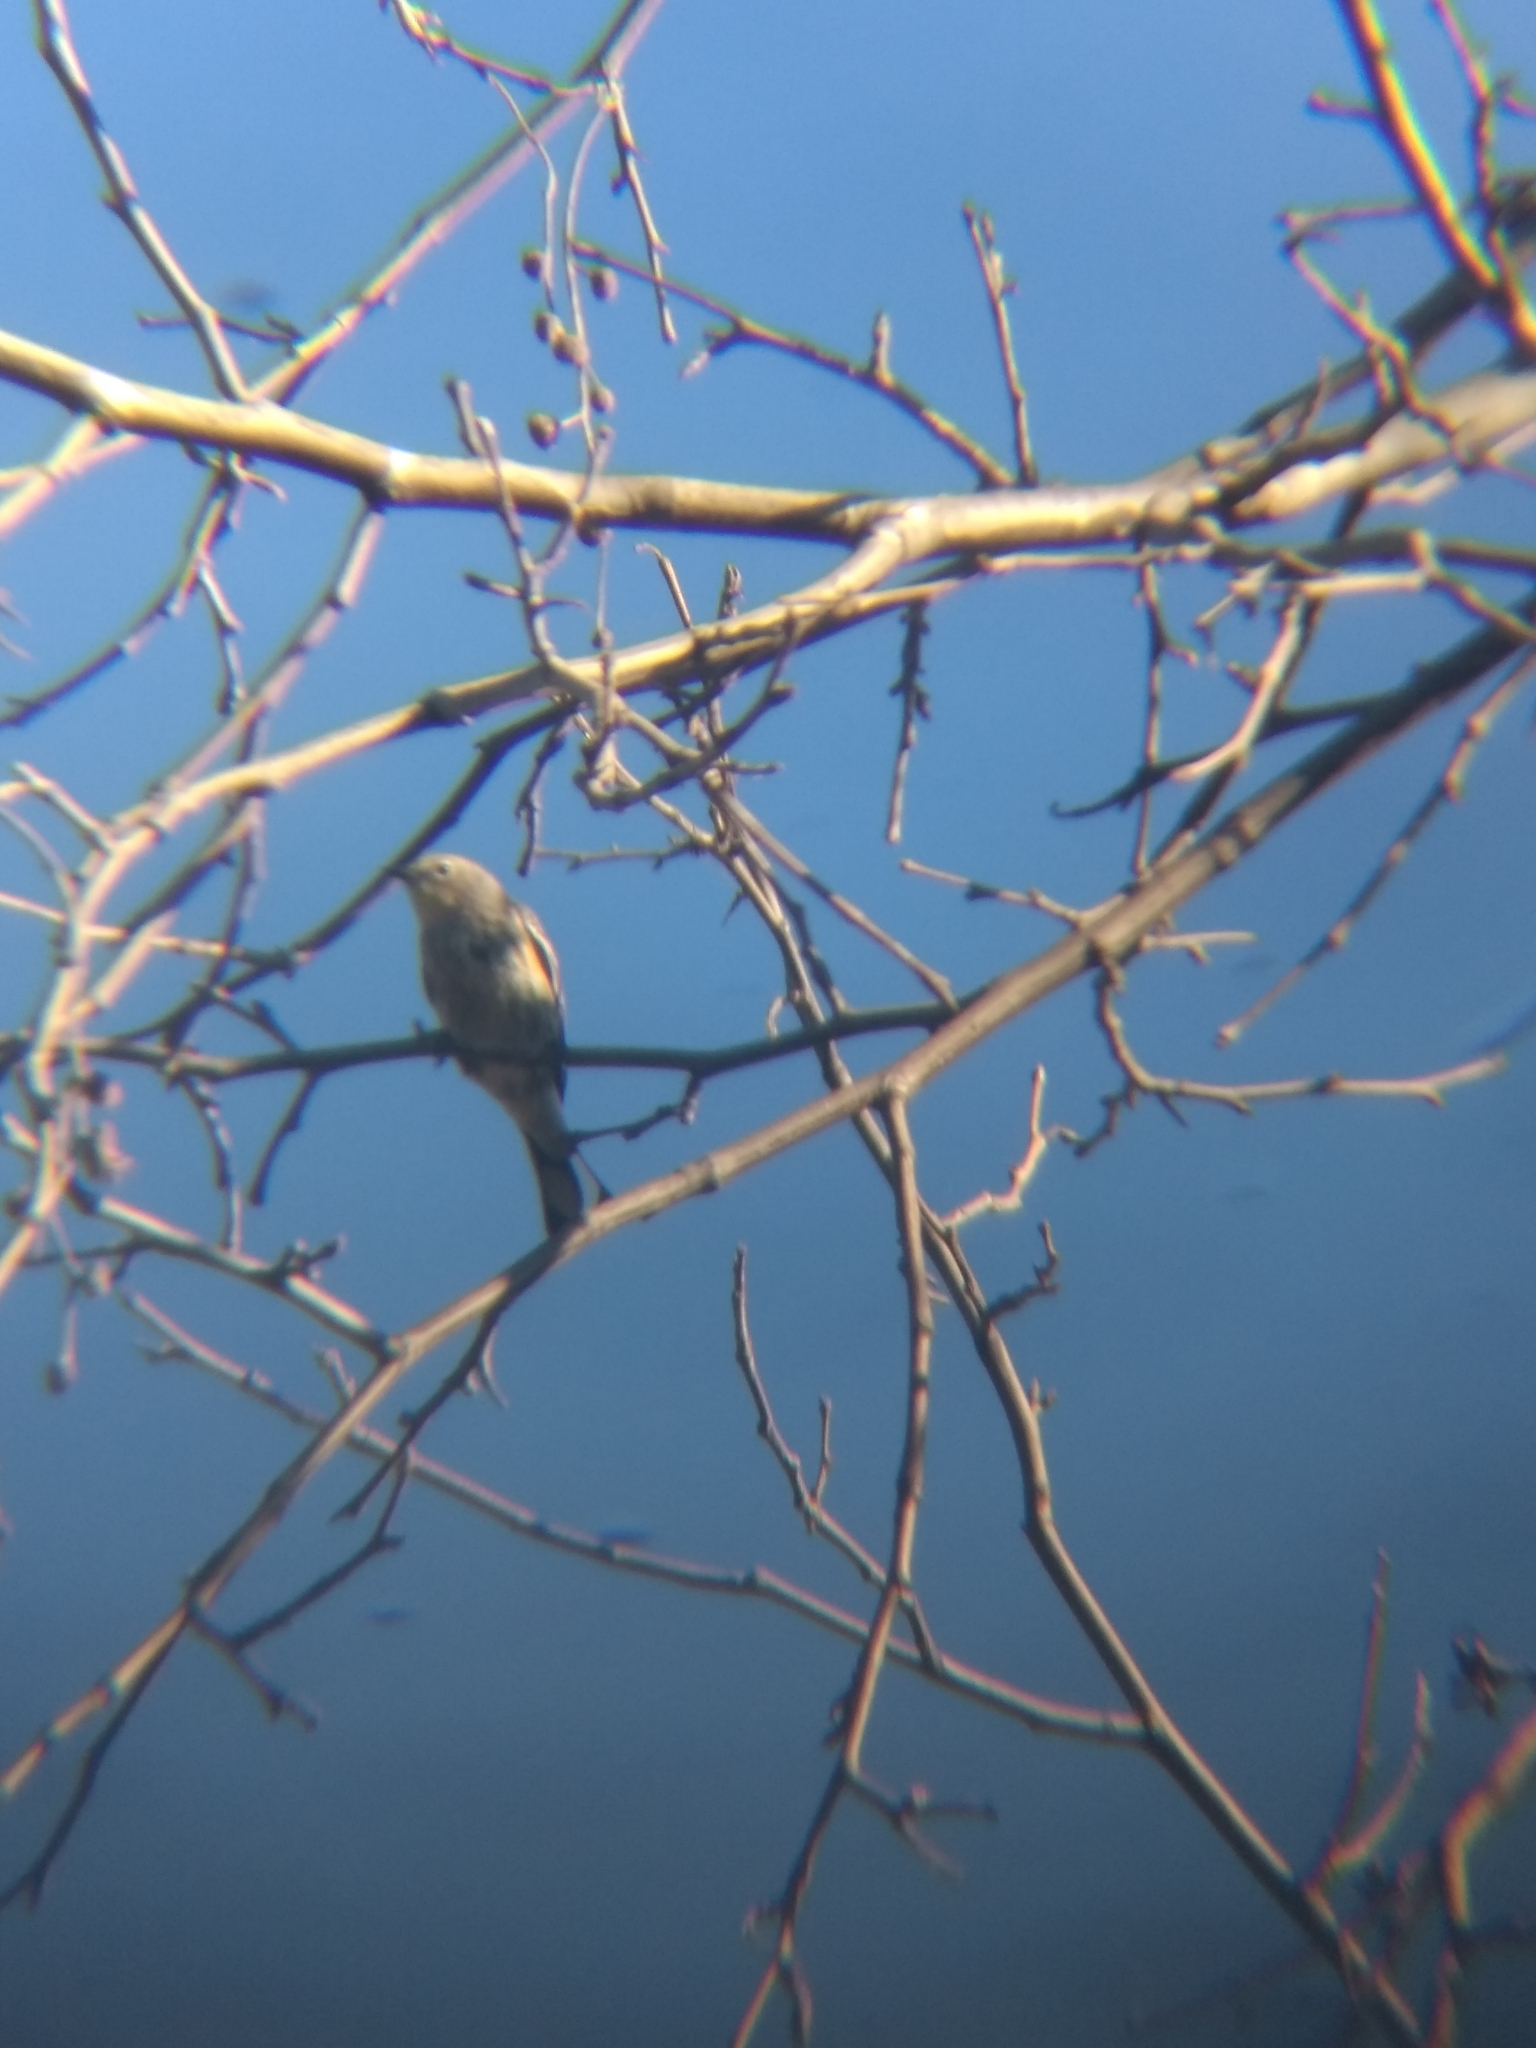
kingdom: Animalia
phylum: Chordata
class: Aves
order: Passeriformes
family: Parulidae
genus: Setophaga
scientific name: Setophaga coronata
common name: Myrtle warbler
